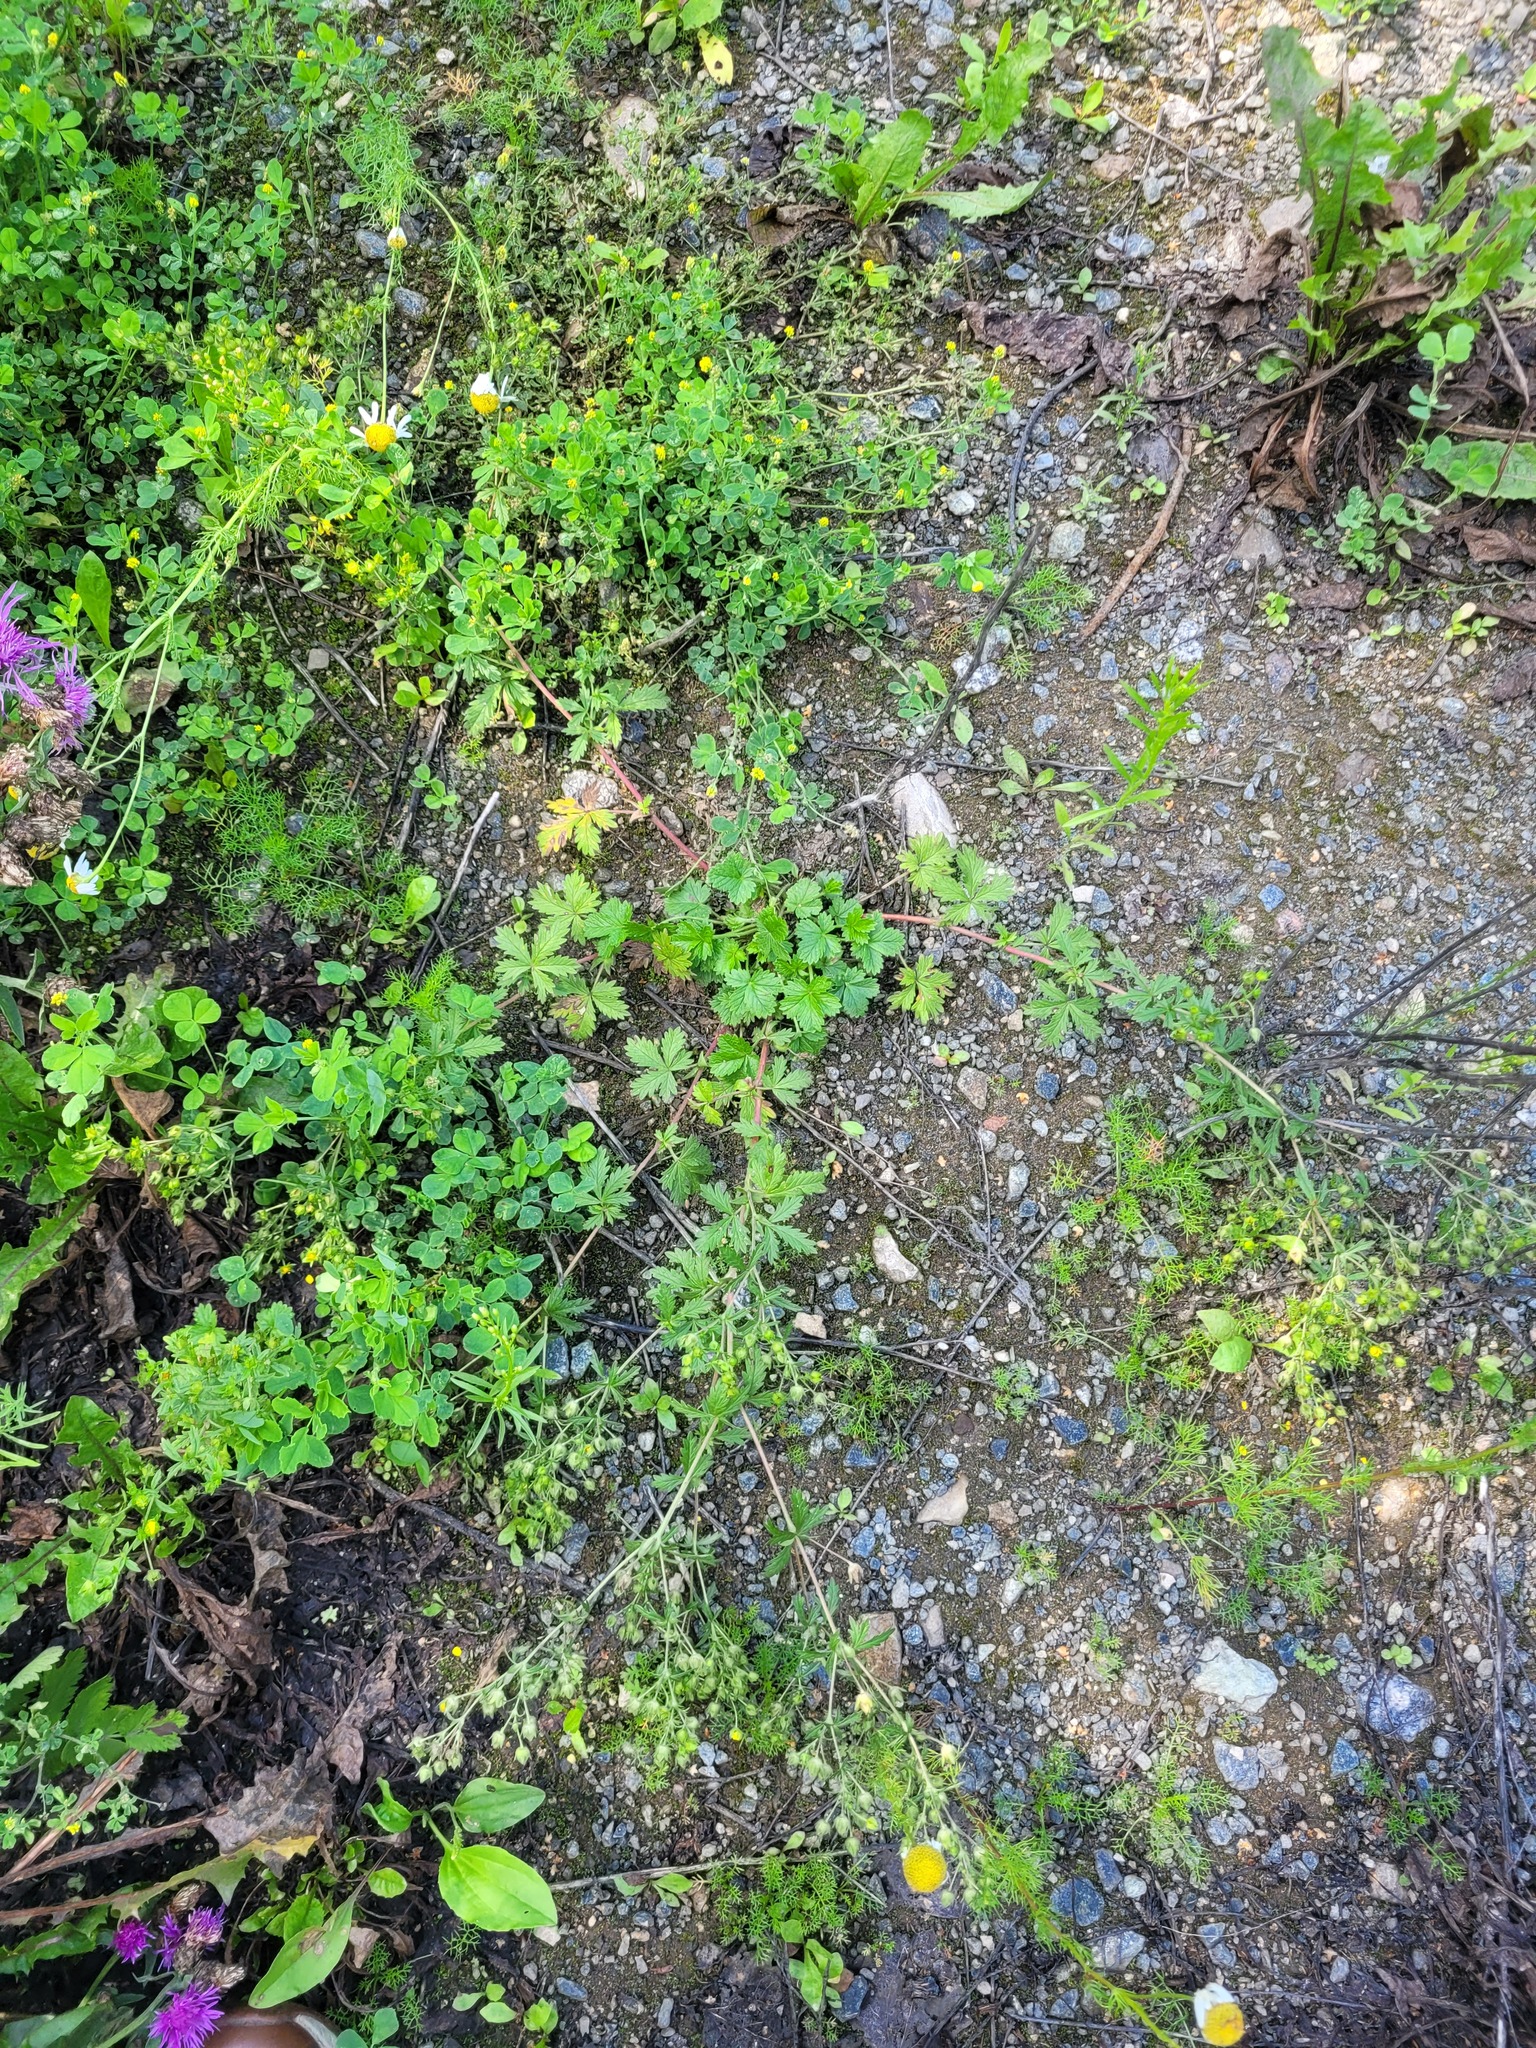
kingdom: Plantae
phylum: Tracheophyta
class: Magnoliopsida
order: Rosales
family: Rosaceae
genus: Potentilla
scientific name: Potentilla intermedia
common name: Downy cinquefoil
